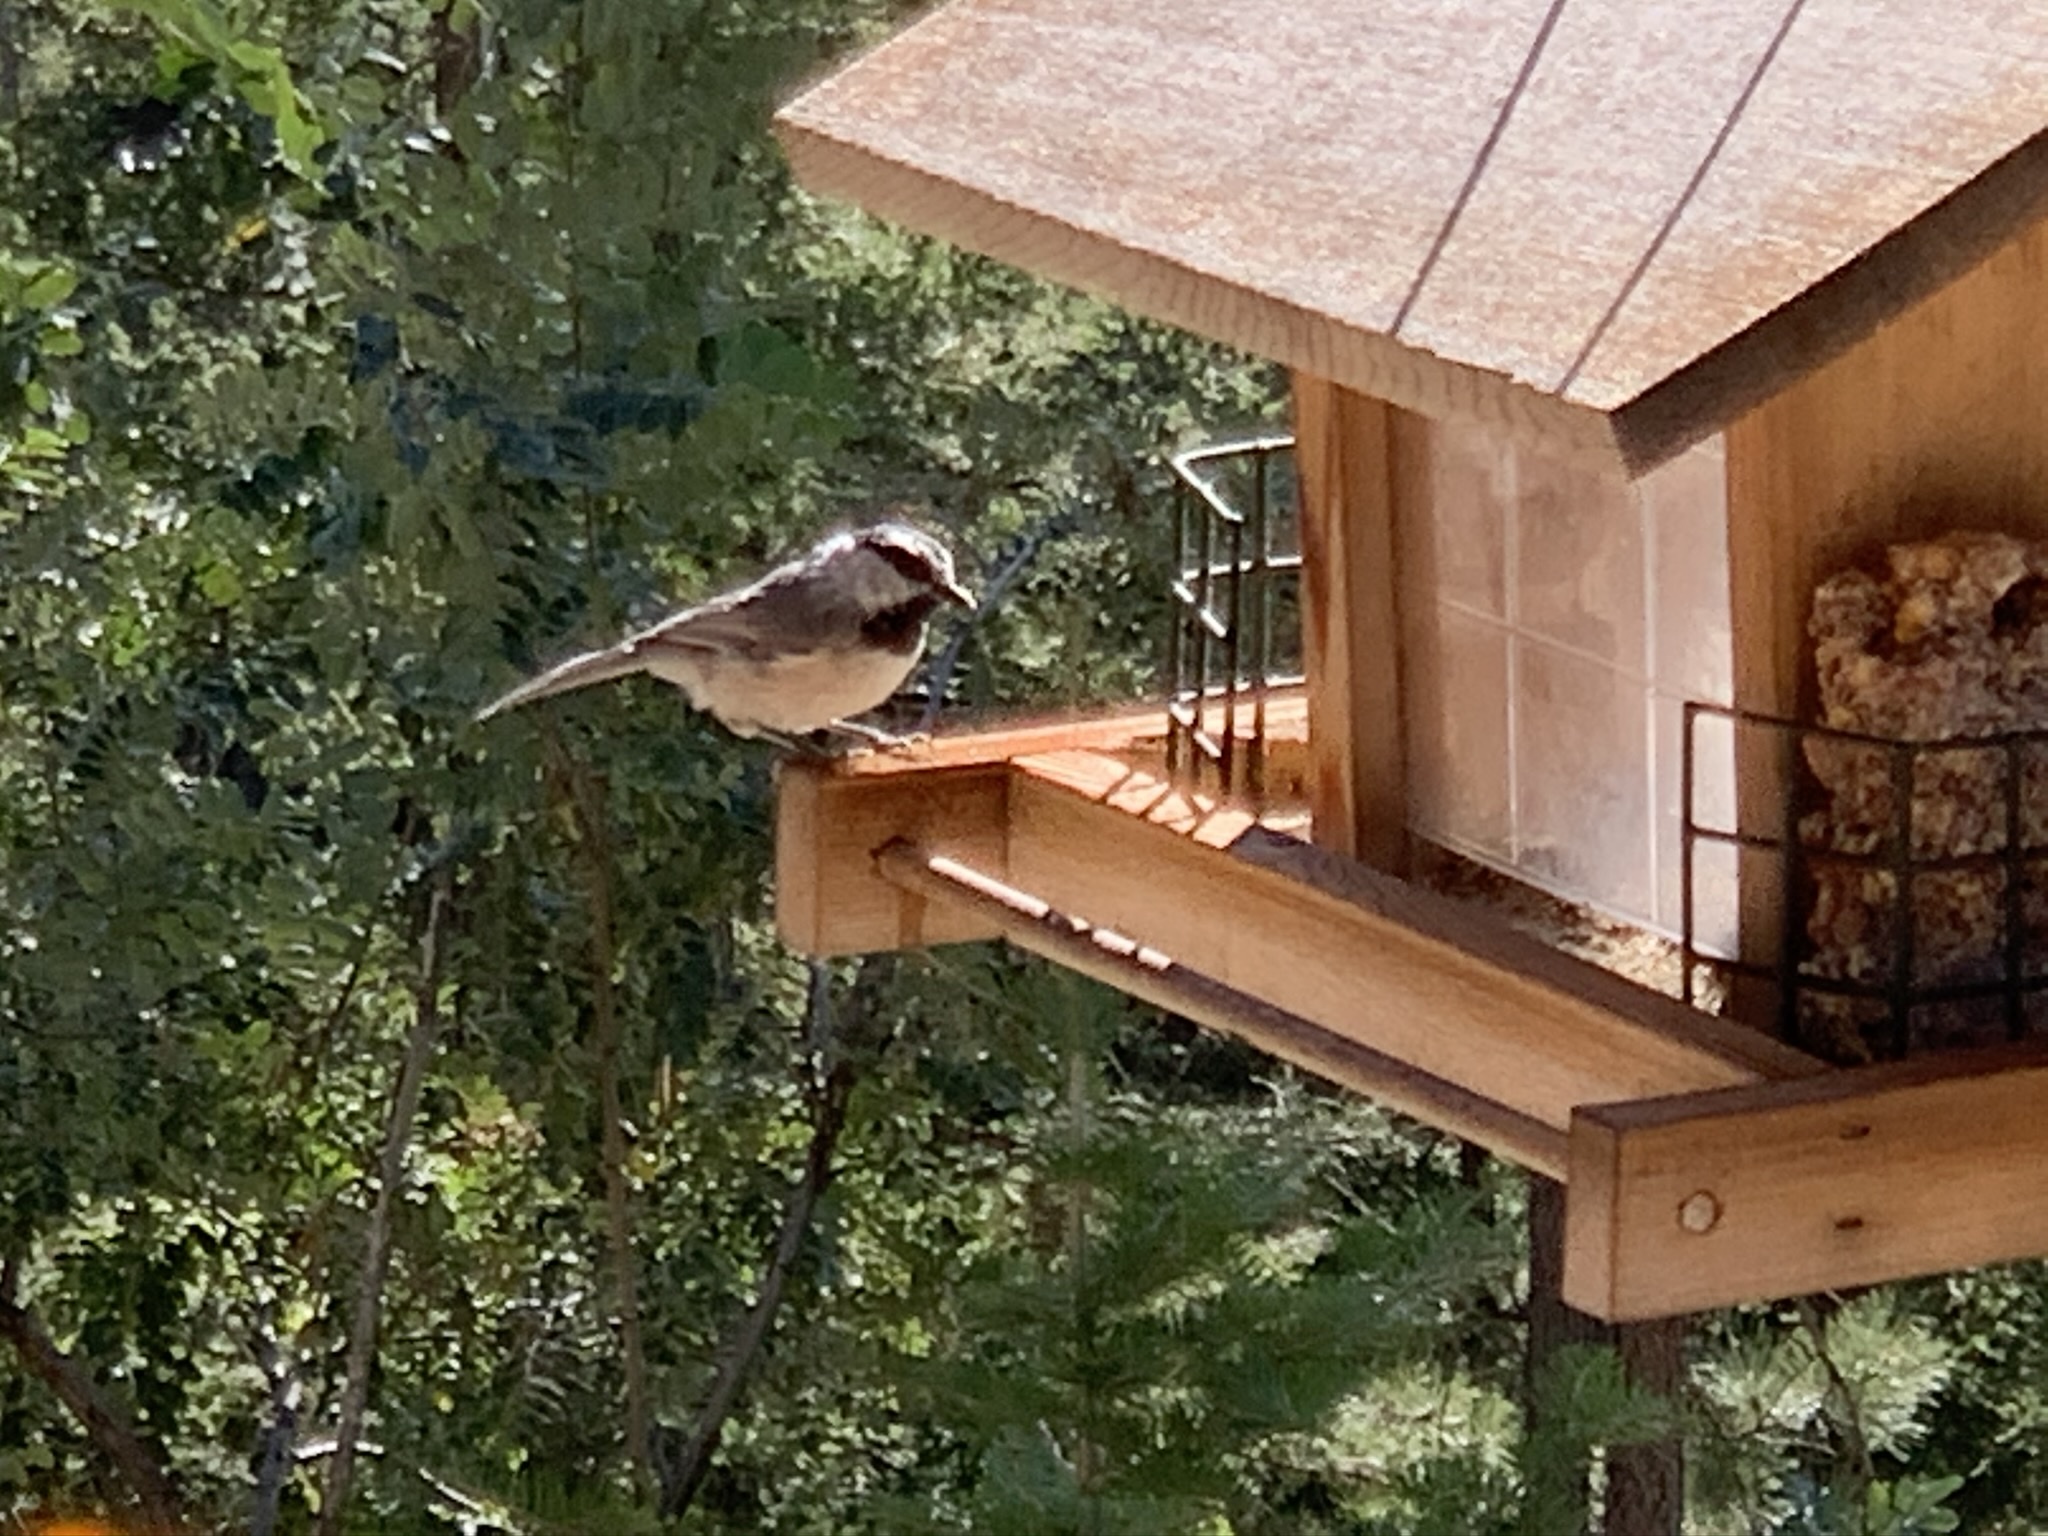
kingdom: Animalia
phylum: Chordata
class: Aves
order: Passeriformes
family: Paridae
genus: Poecile
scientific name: Poecile gambeli
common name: Mountain chickadee
